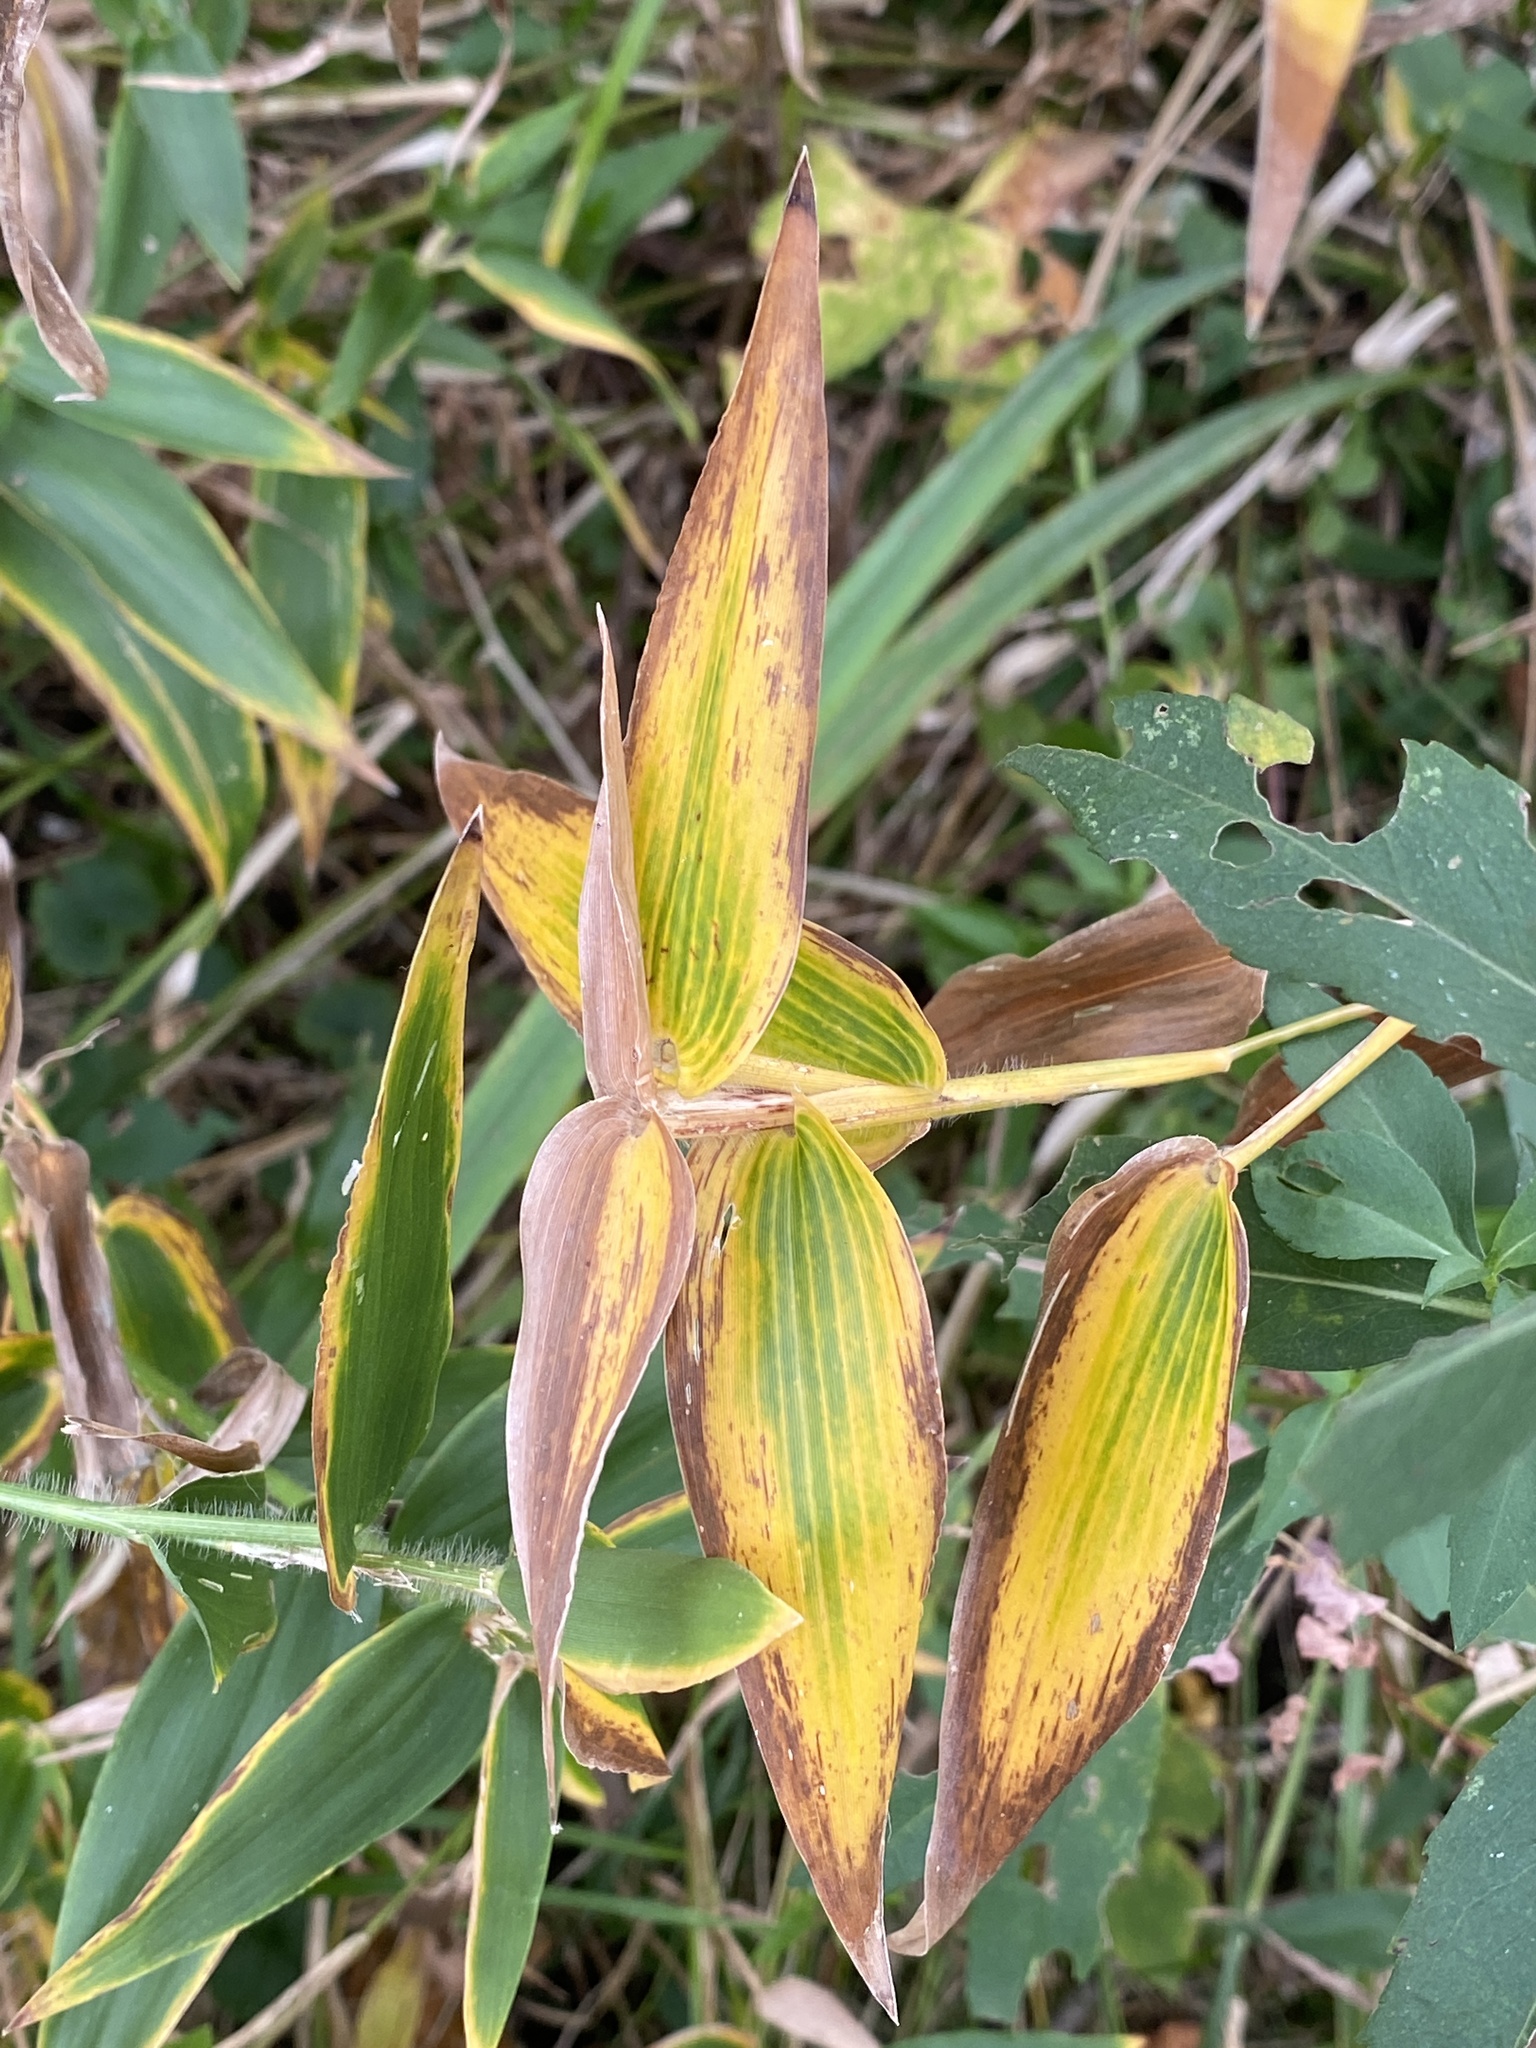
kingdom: Plantae
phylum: Tracheophyta
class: Liliopsida
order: Poales
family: Poaceae
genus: Dichanthelium
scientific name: Dichanthelium clandestinum
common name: Deer-tongue grass
